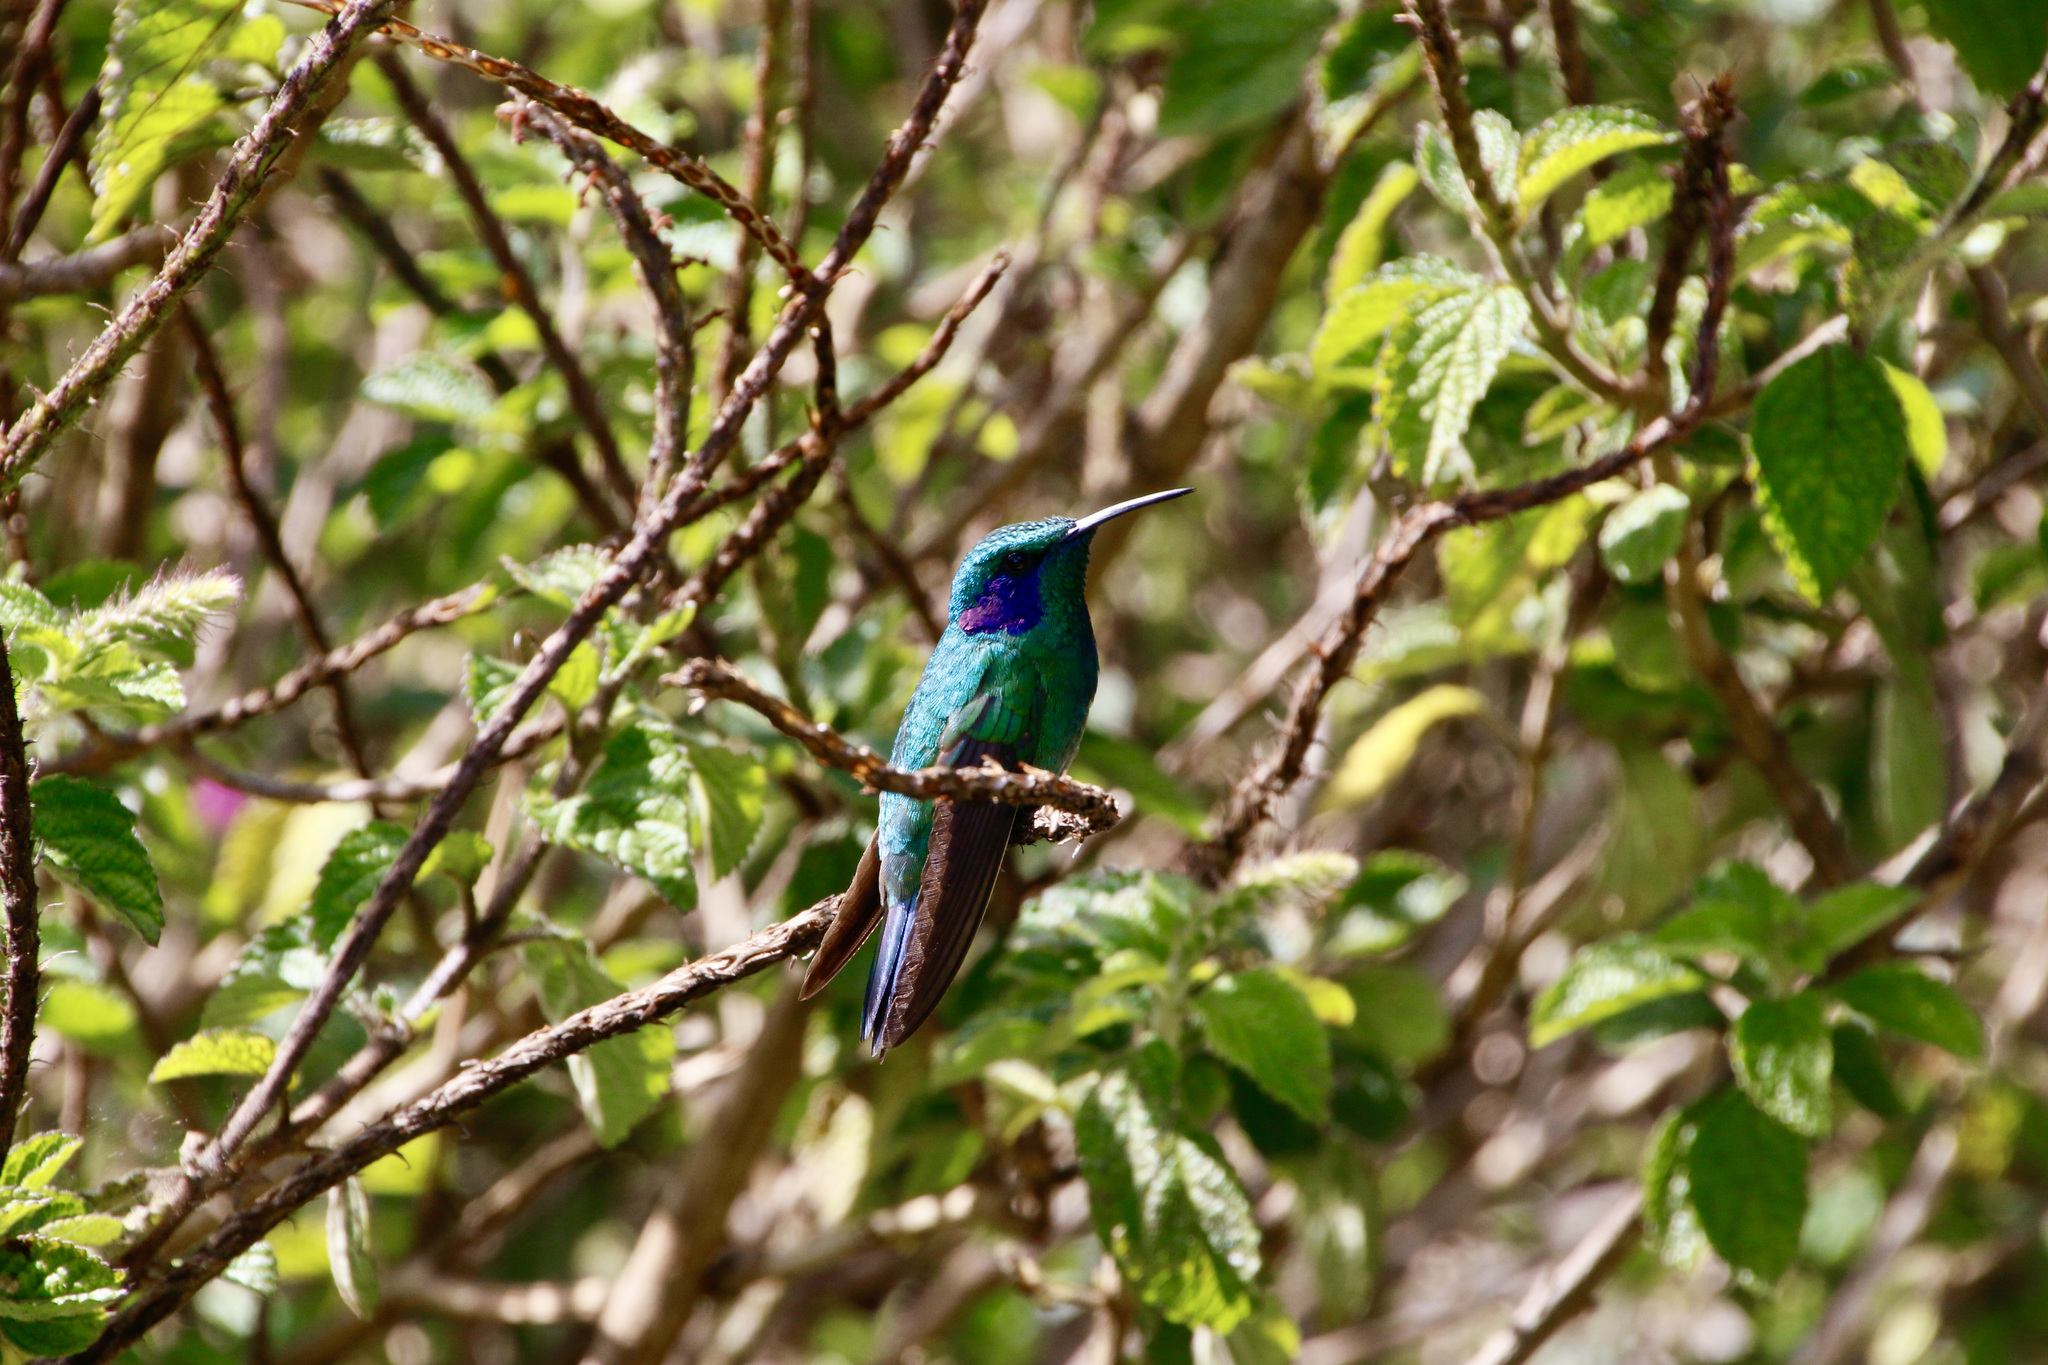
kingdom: Animalia
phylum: Chordata
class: Aves
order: Apodiformes
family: Trochilidae
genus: Colibri
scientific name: Colibri cyanotus
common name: Lesser violetear
